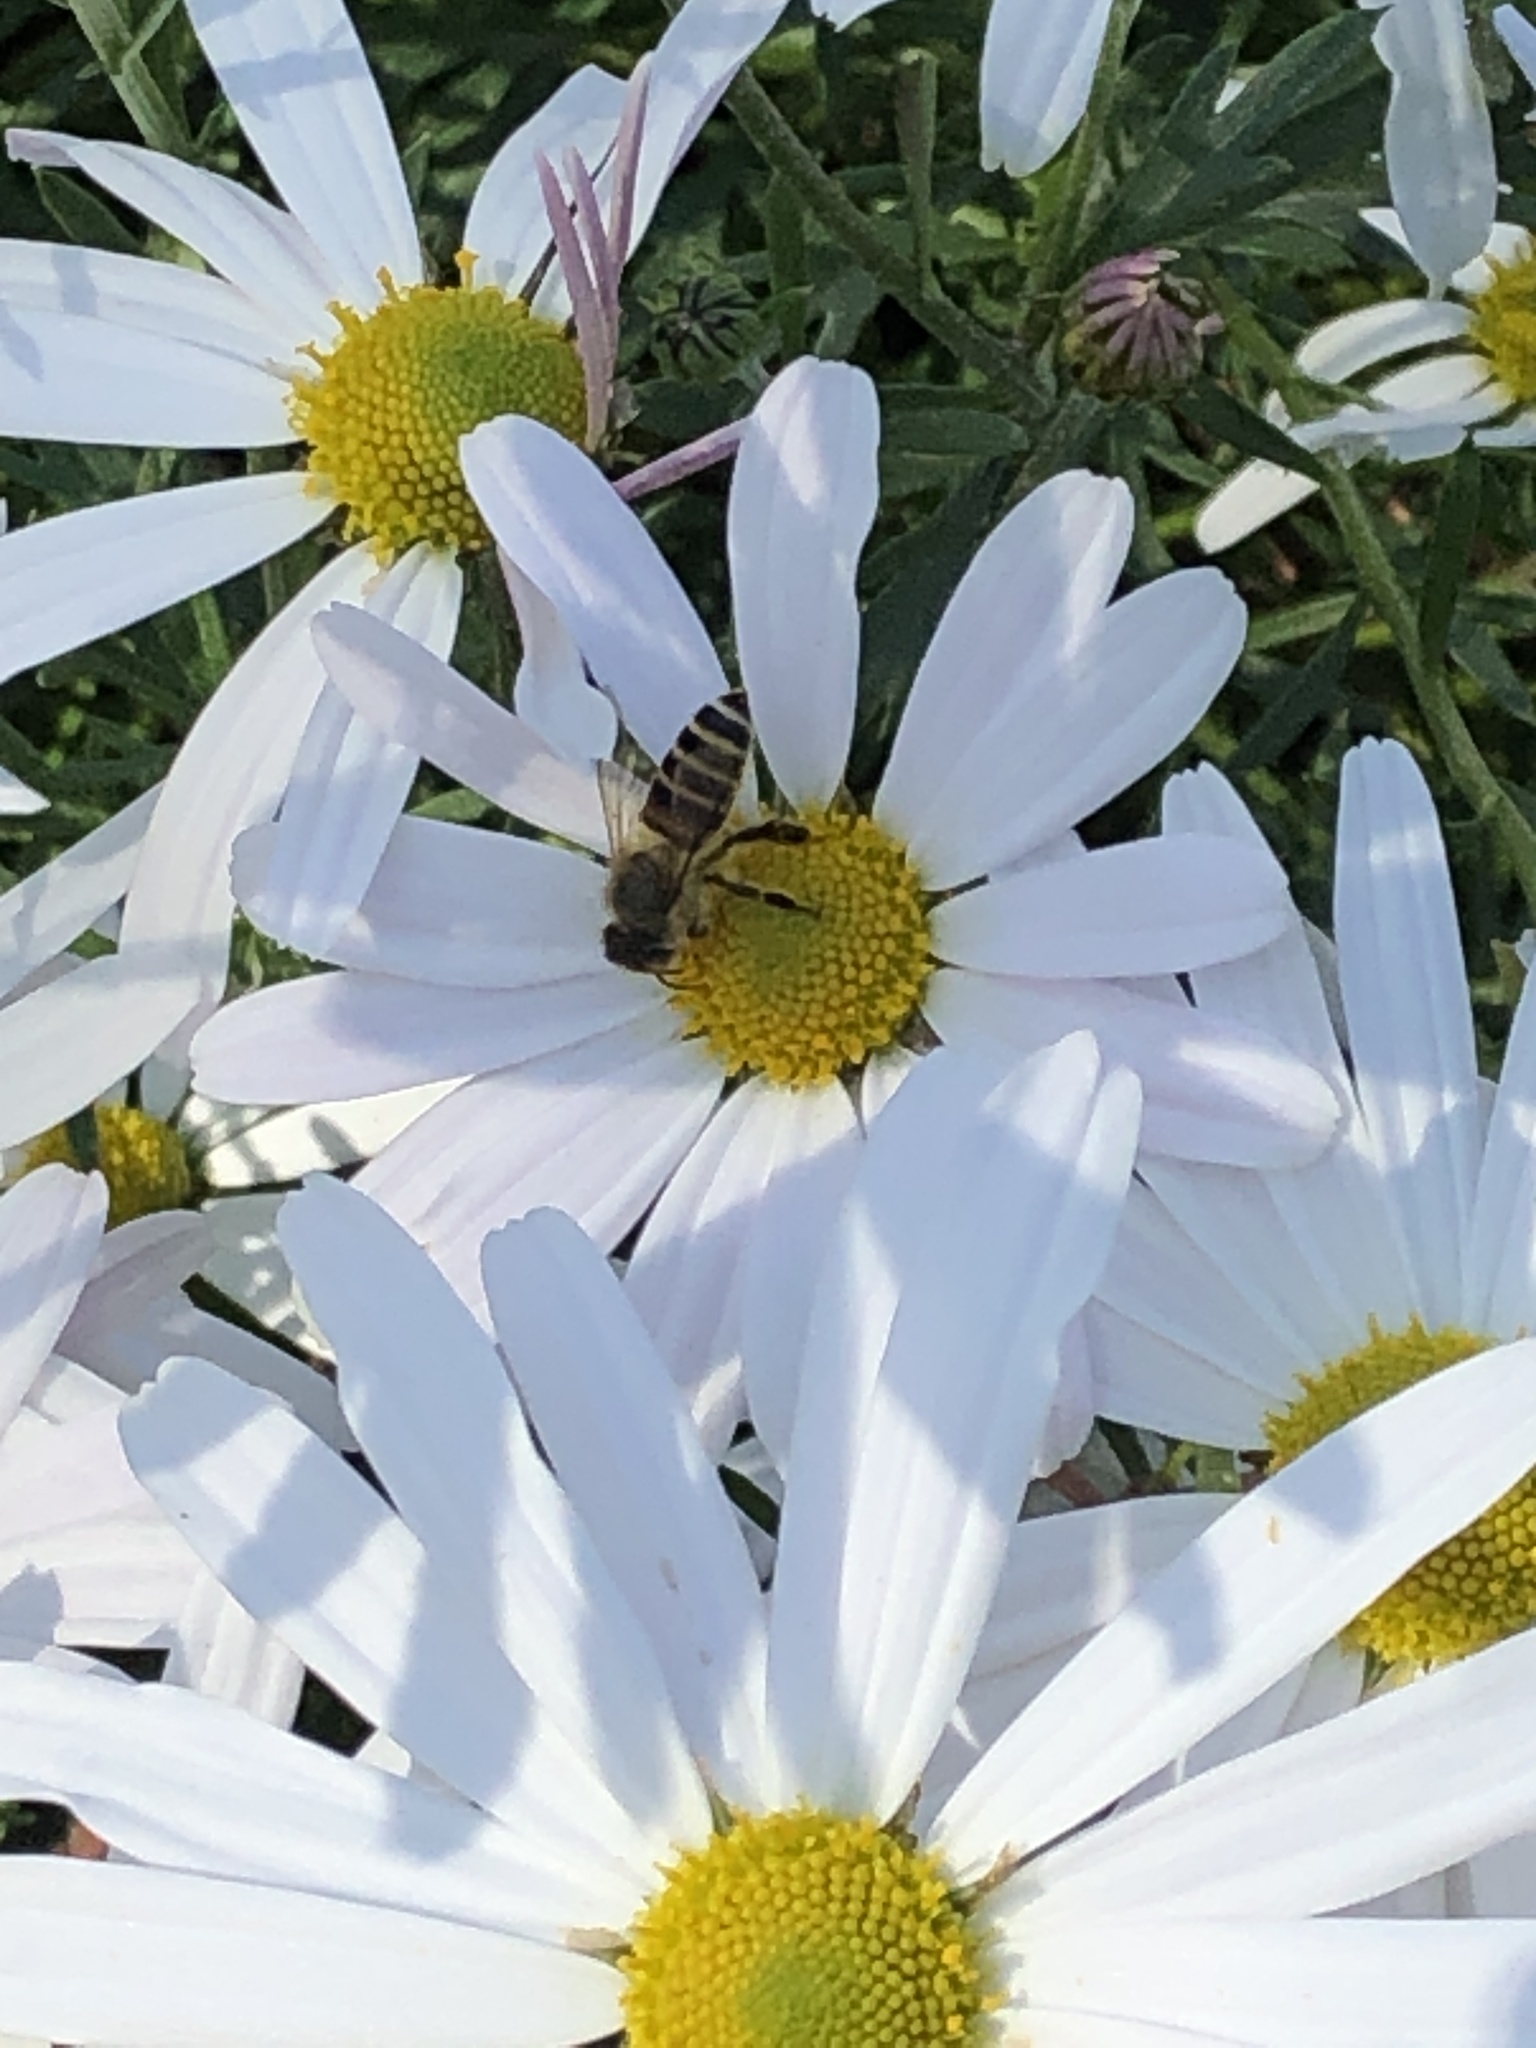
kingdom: Animalia
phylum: Arthropoda
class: Insecta
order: Hymenoptera
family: Apidae
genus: Apis
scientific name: Apis cerana
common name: Honey bee
